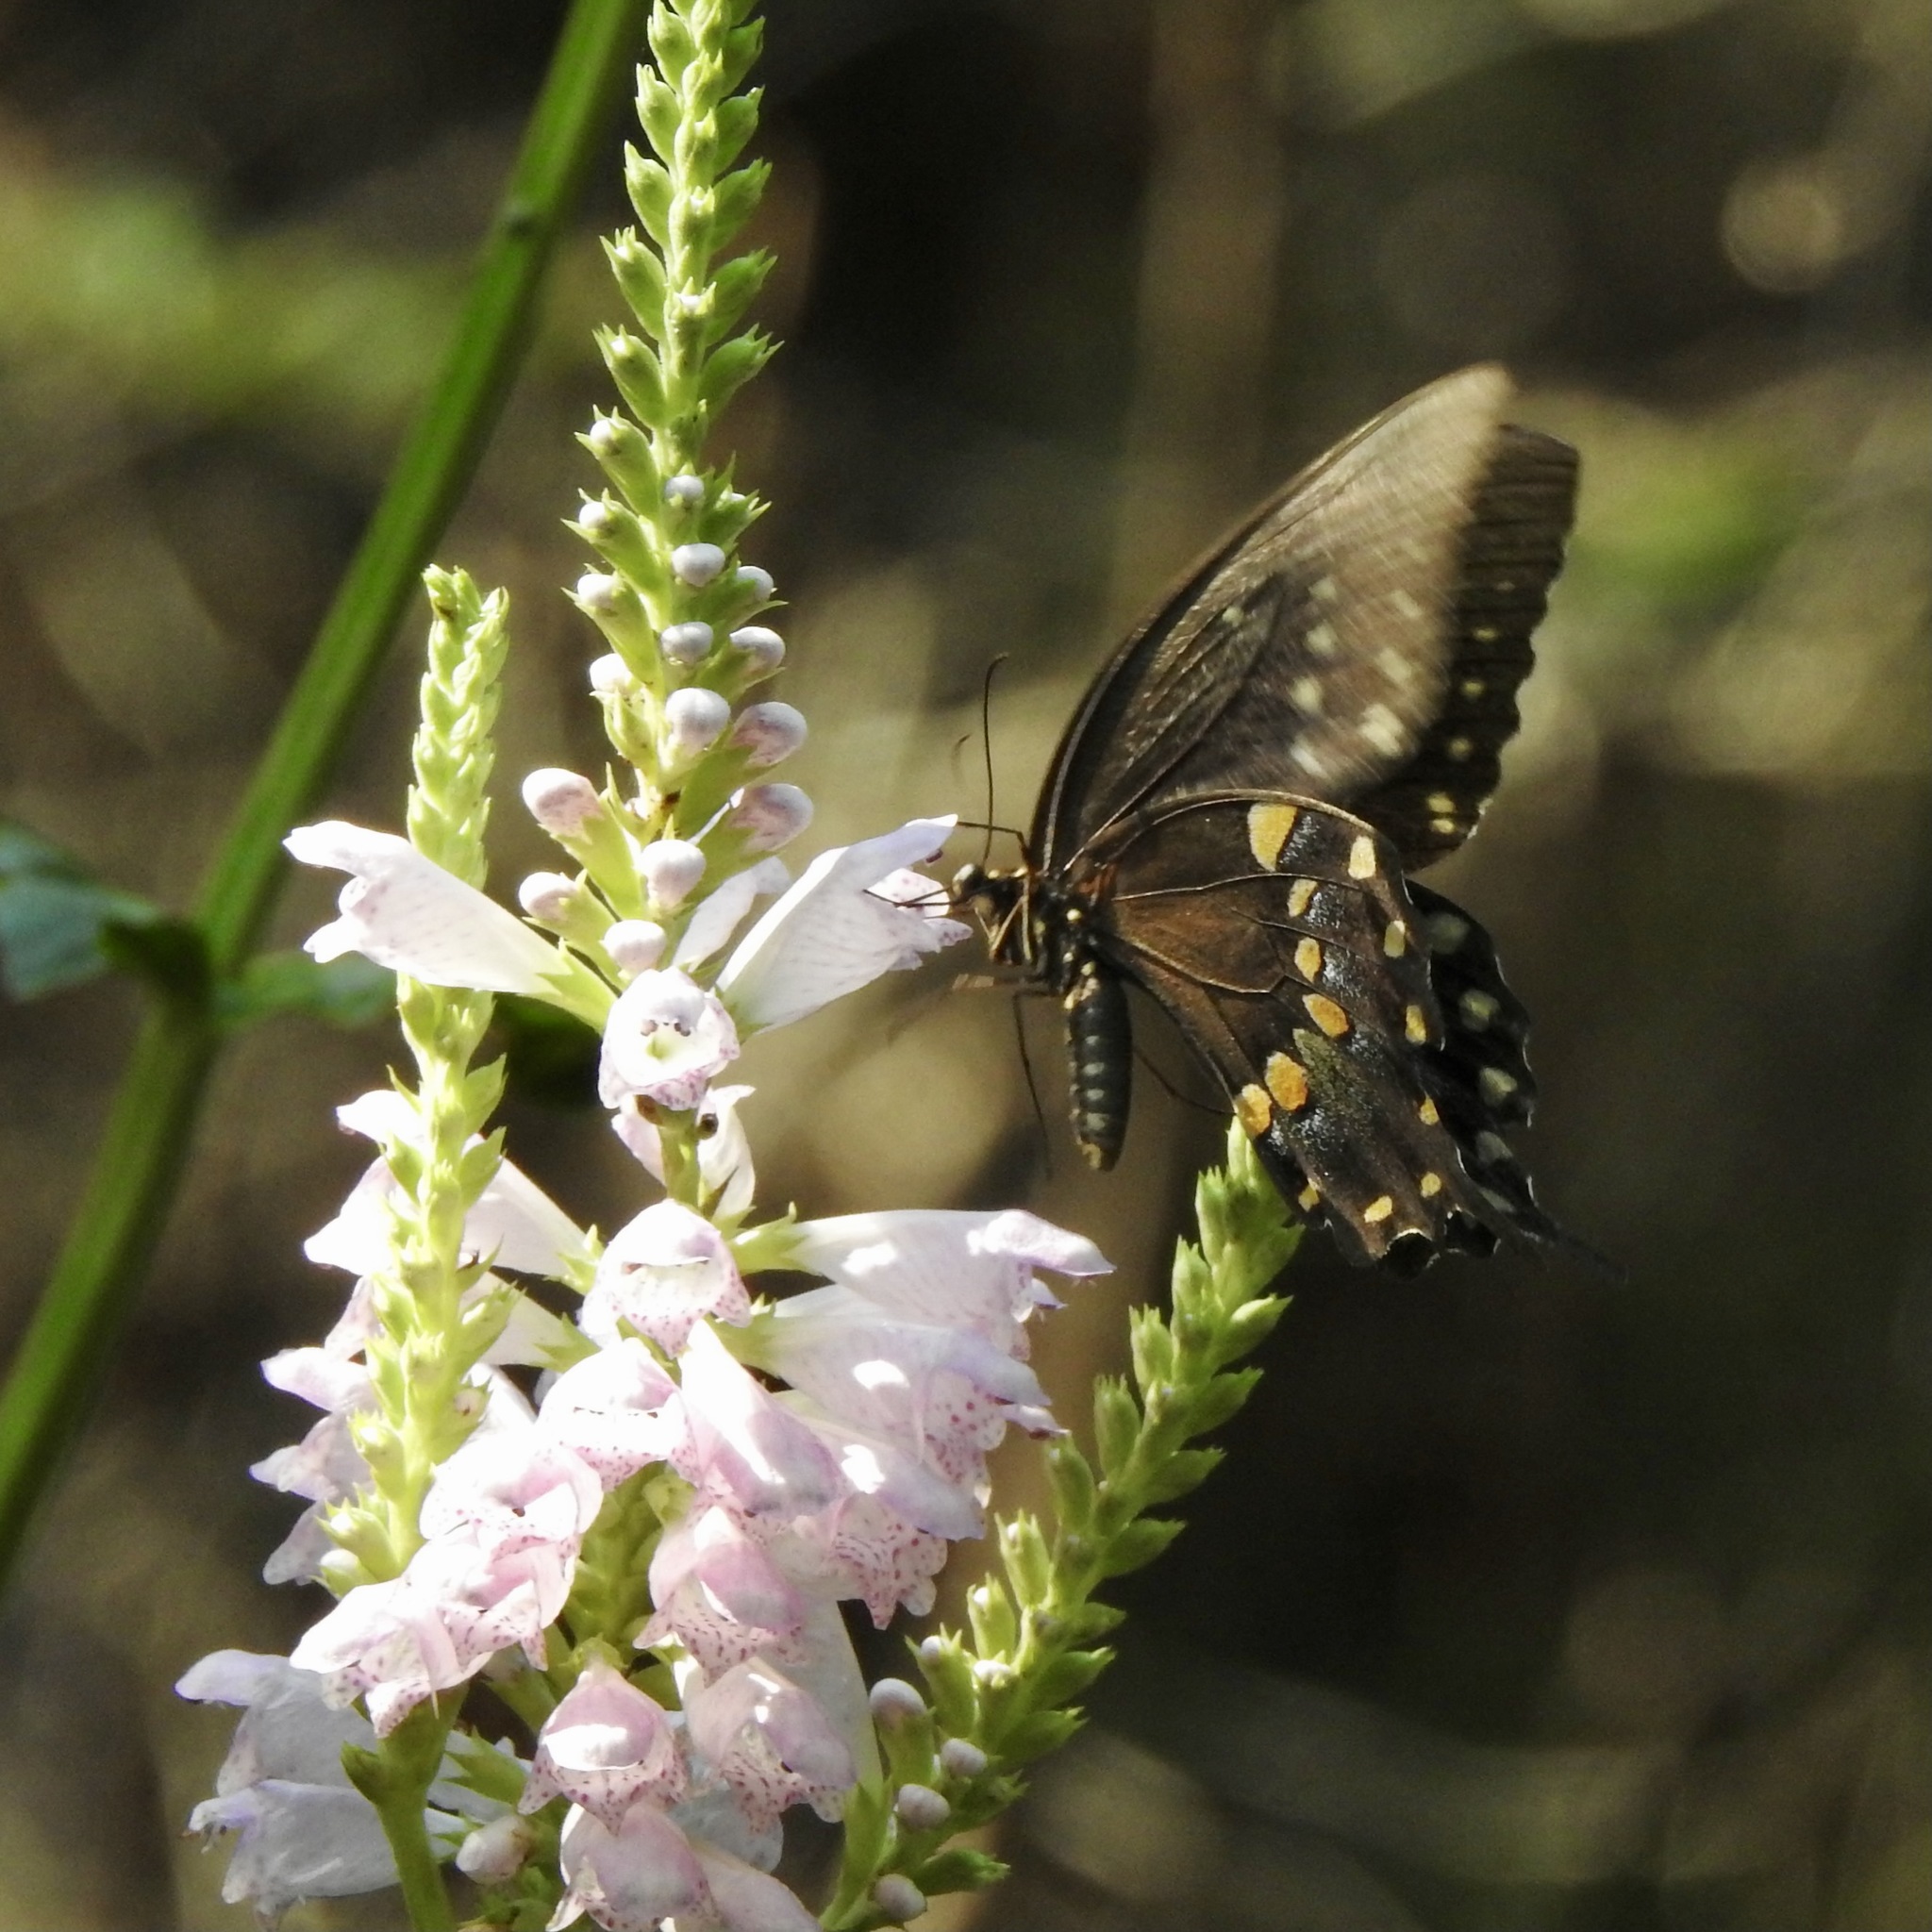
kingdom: Animalia
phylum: Arthropoda
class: Insecta
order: Lepidoptera
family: Papilionidae
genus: Papilio
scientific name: Papilio troilus
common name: Spicebush swallowtail
